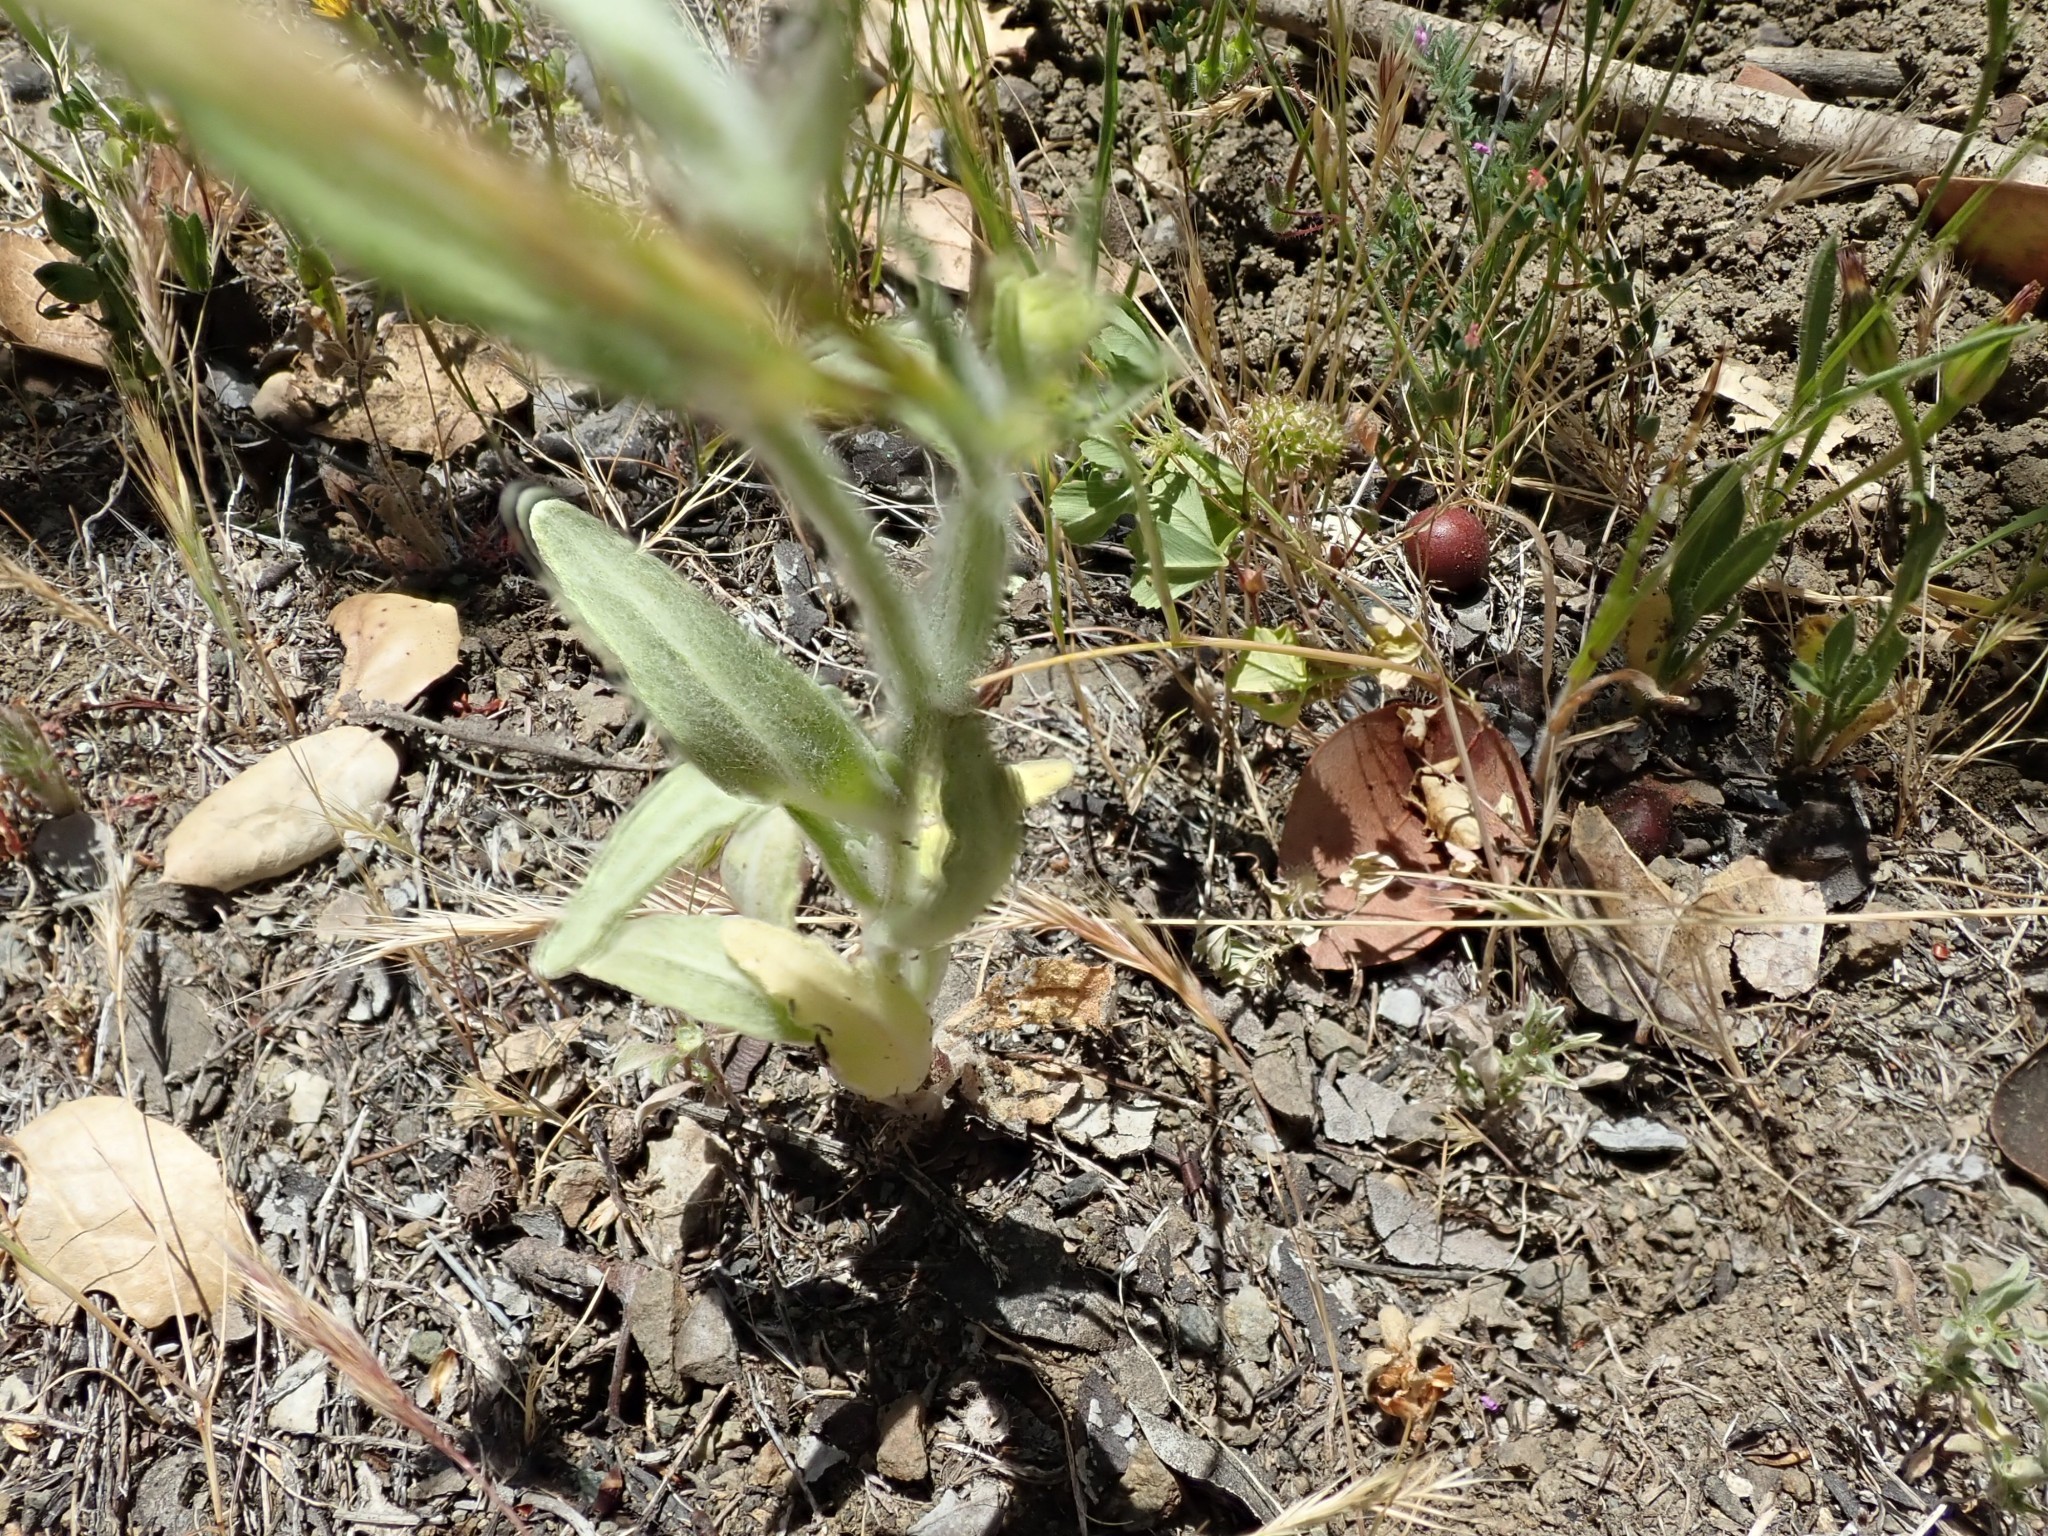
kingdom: Plantae
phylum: Tracheophyta
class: Magnoliopsida
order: Asterales
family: Asteraceae
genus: Monolopia
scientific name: Monolopia gracilens
